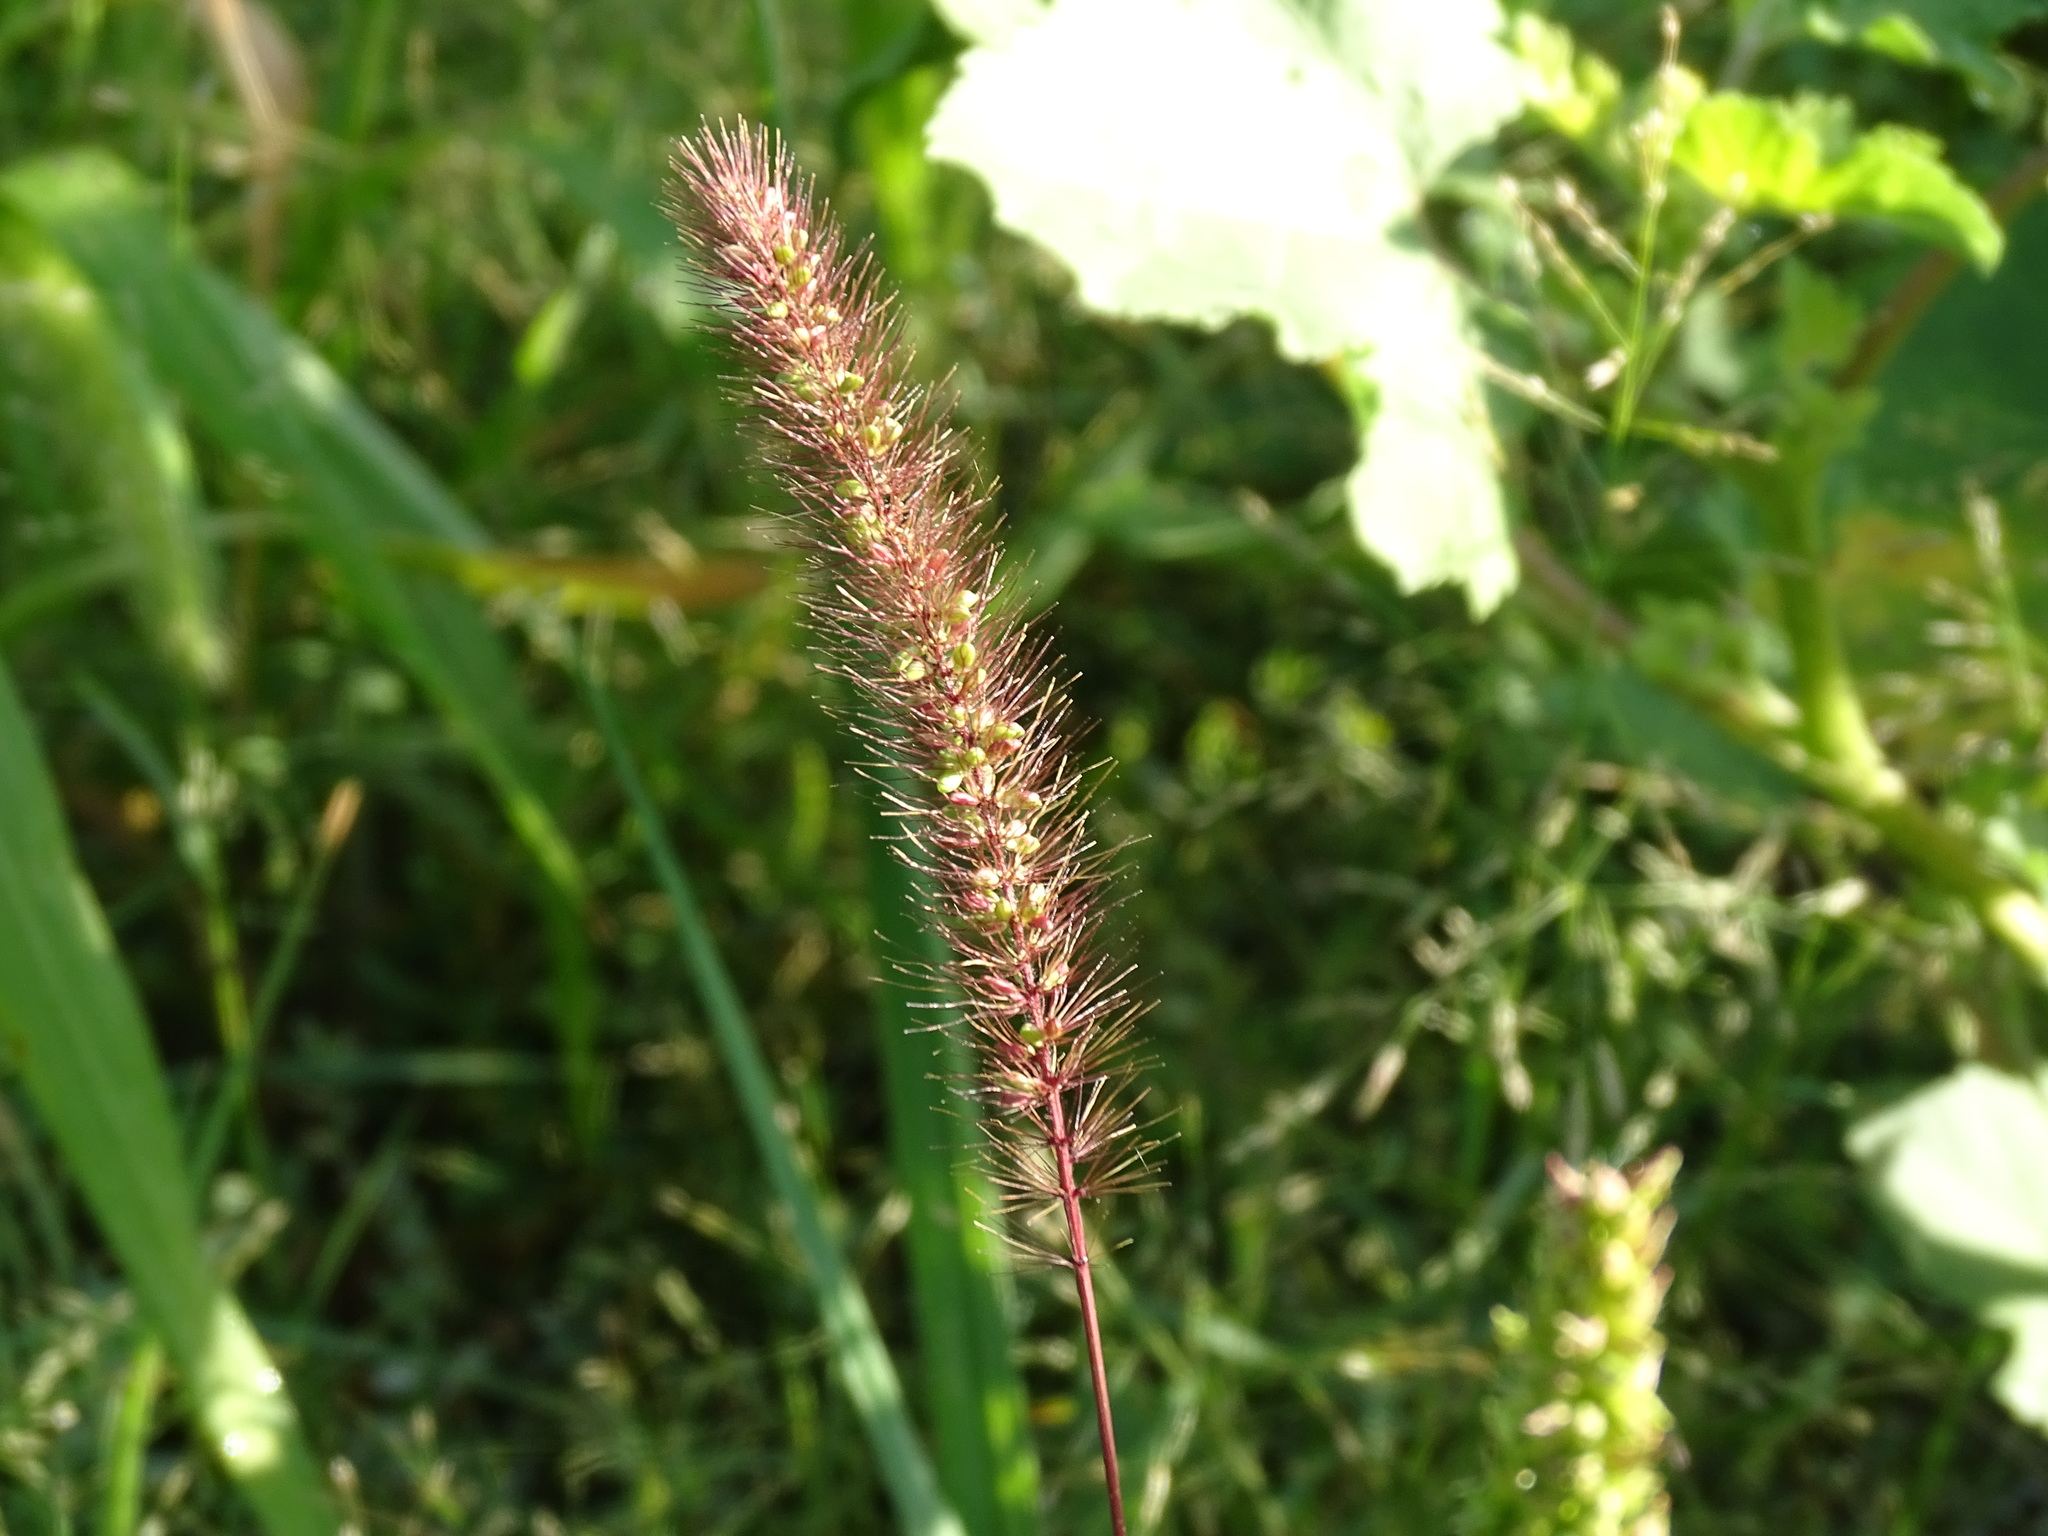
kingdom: Plantae
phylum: Tracheophyta
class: Liliopsida
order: Poales
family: Poaceae
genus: Setaria
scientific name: Setaria viridis
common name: Green bristlegrass
